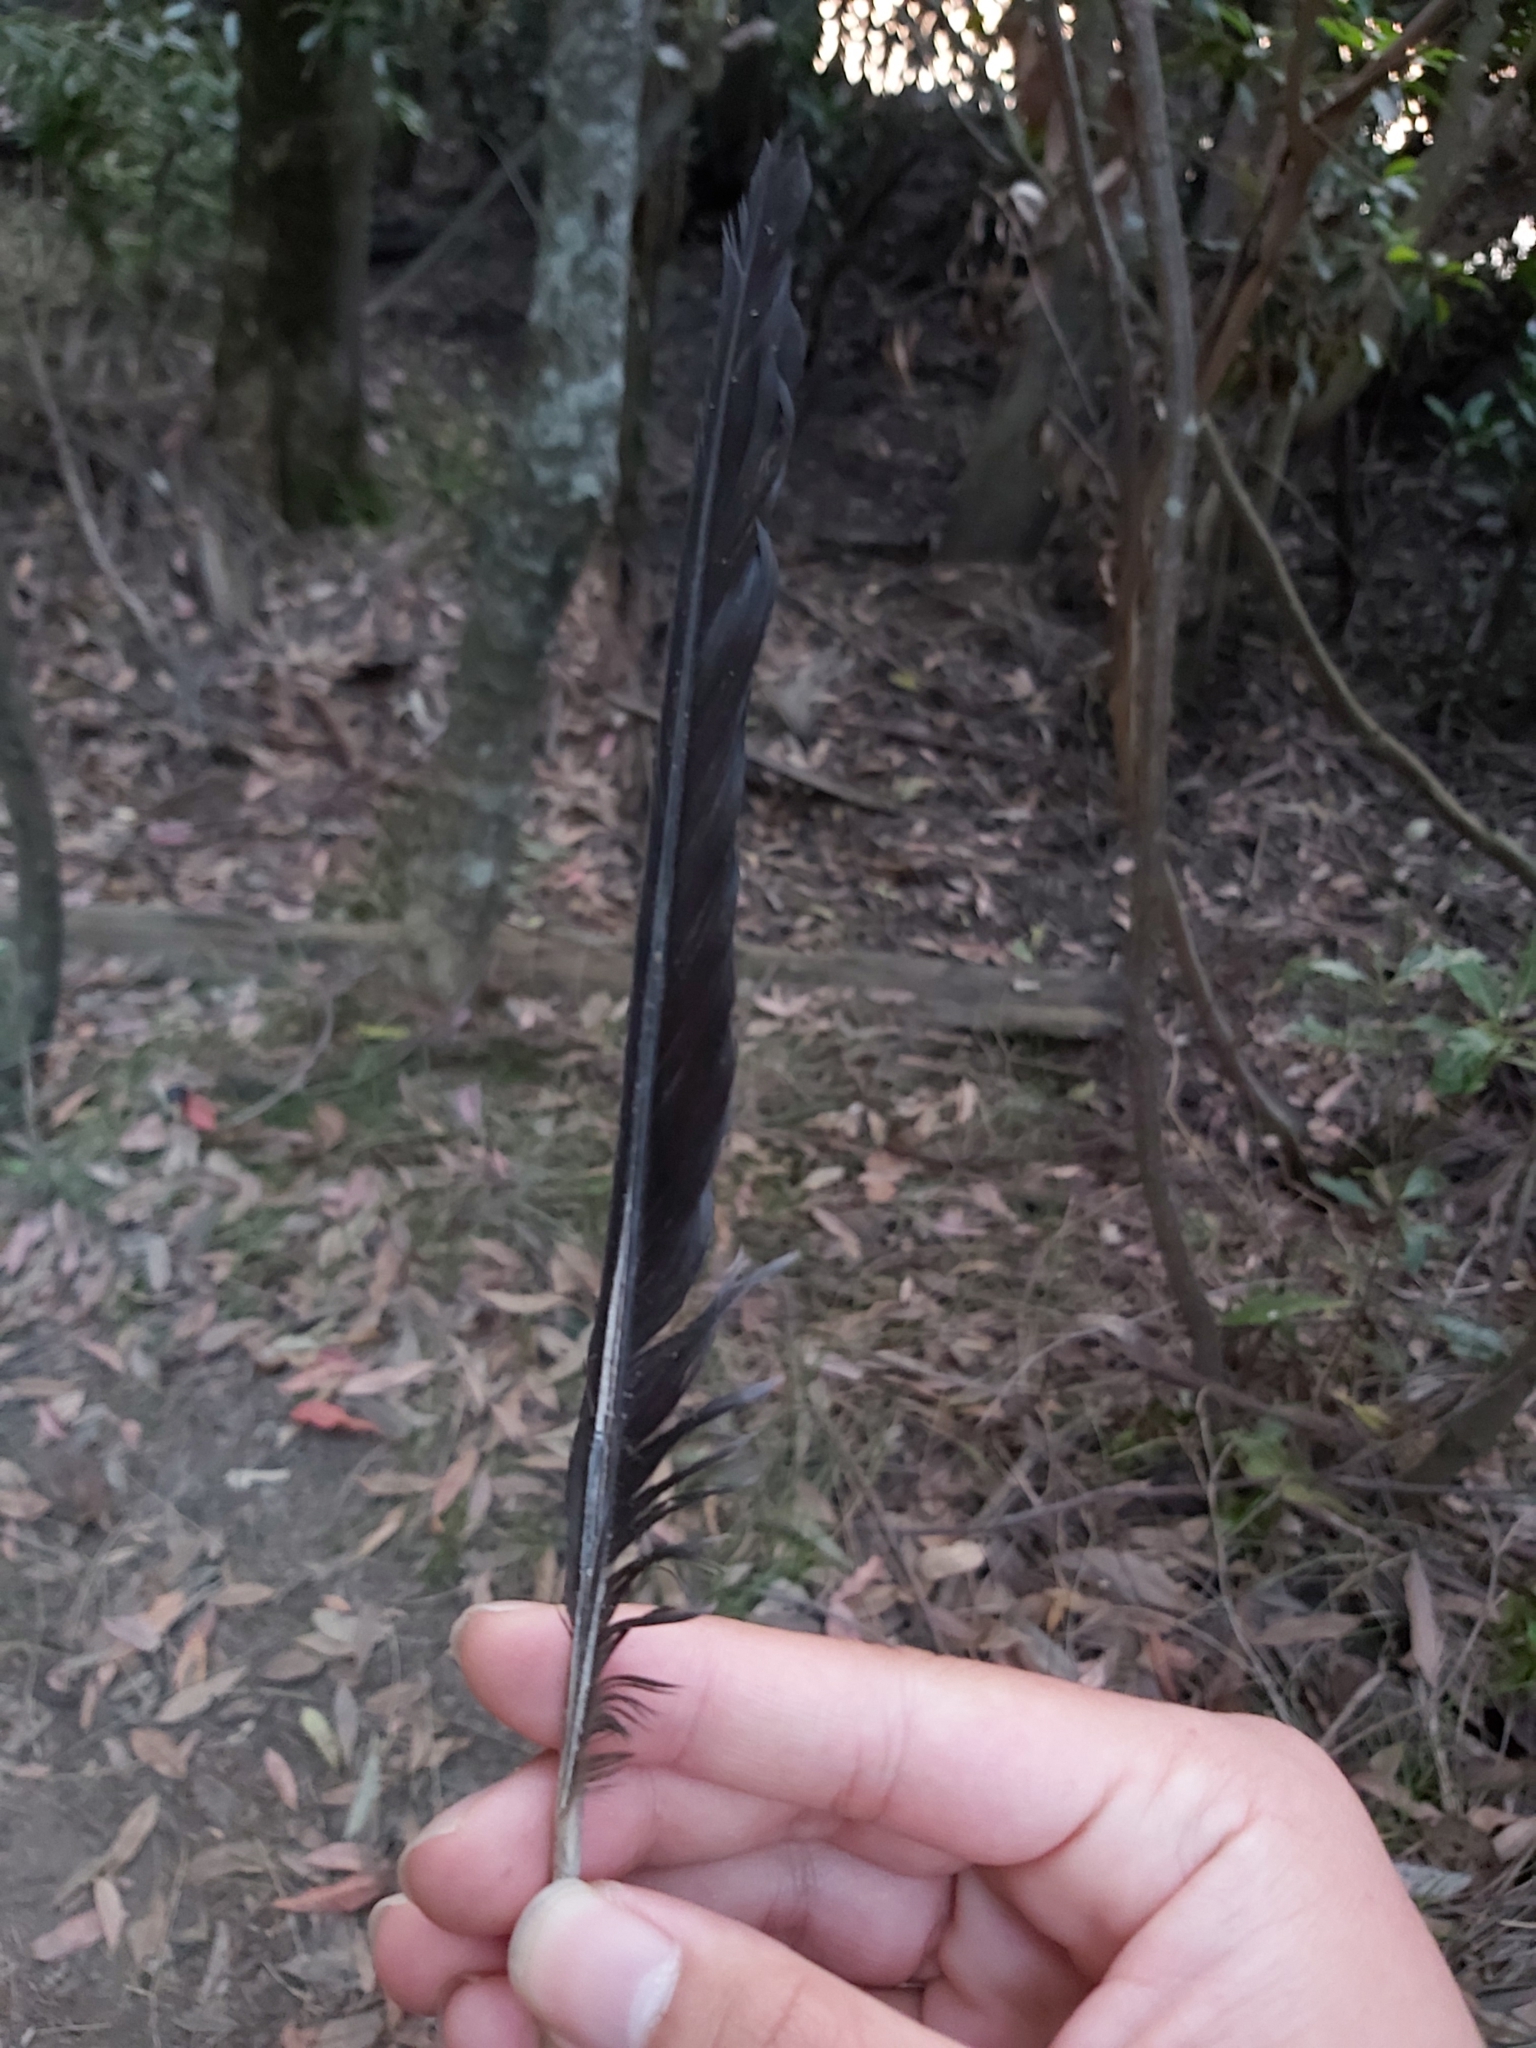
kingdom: Animalia
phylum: Chordata
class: Aves
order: Passeriformes
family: Cracticidae
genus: Gymnorhina
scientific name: Gymnorhina tibicen
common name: Australian magpie
